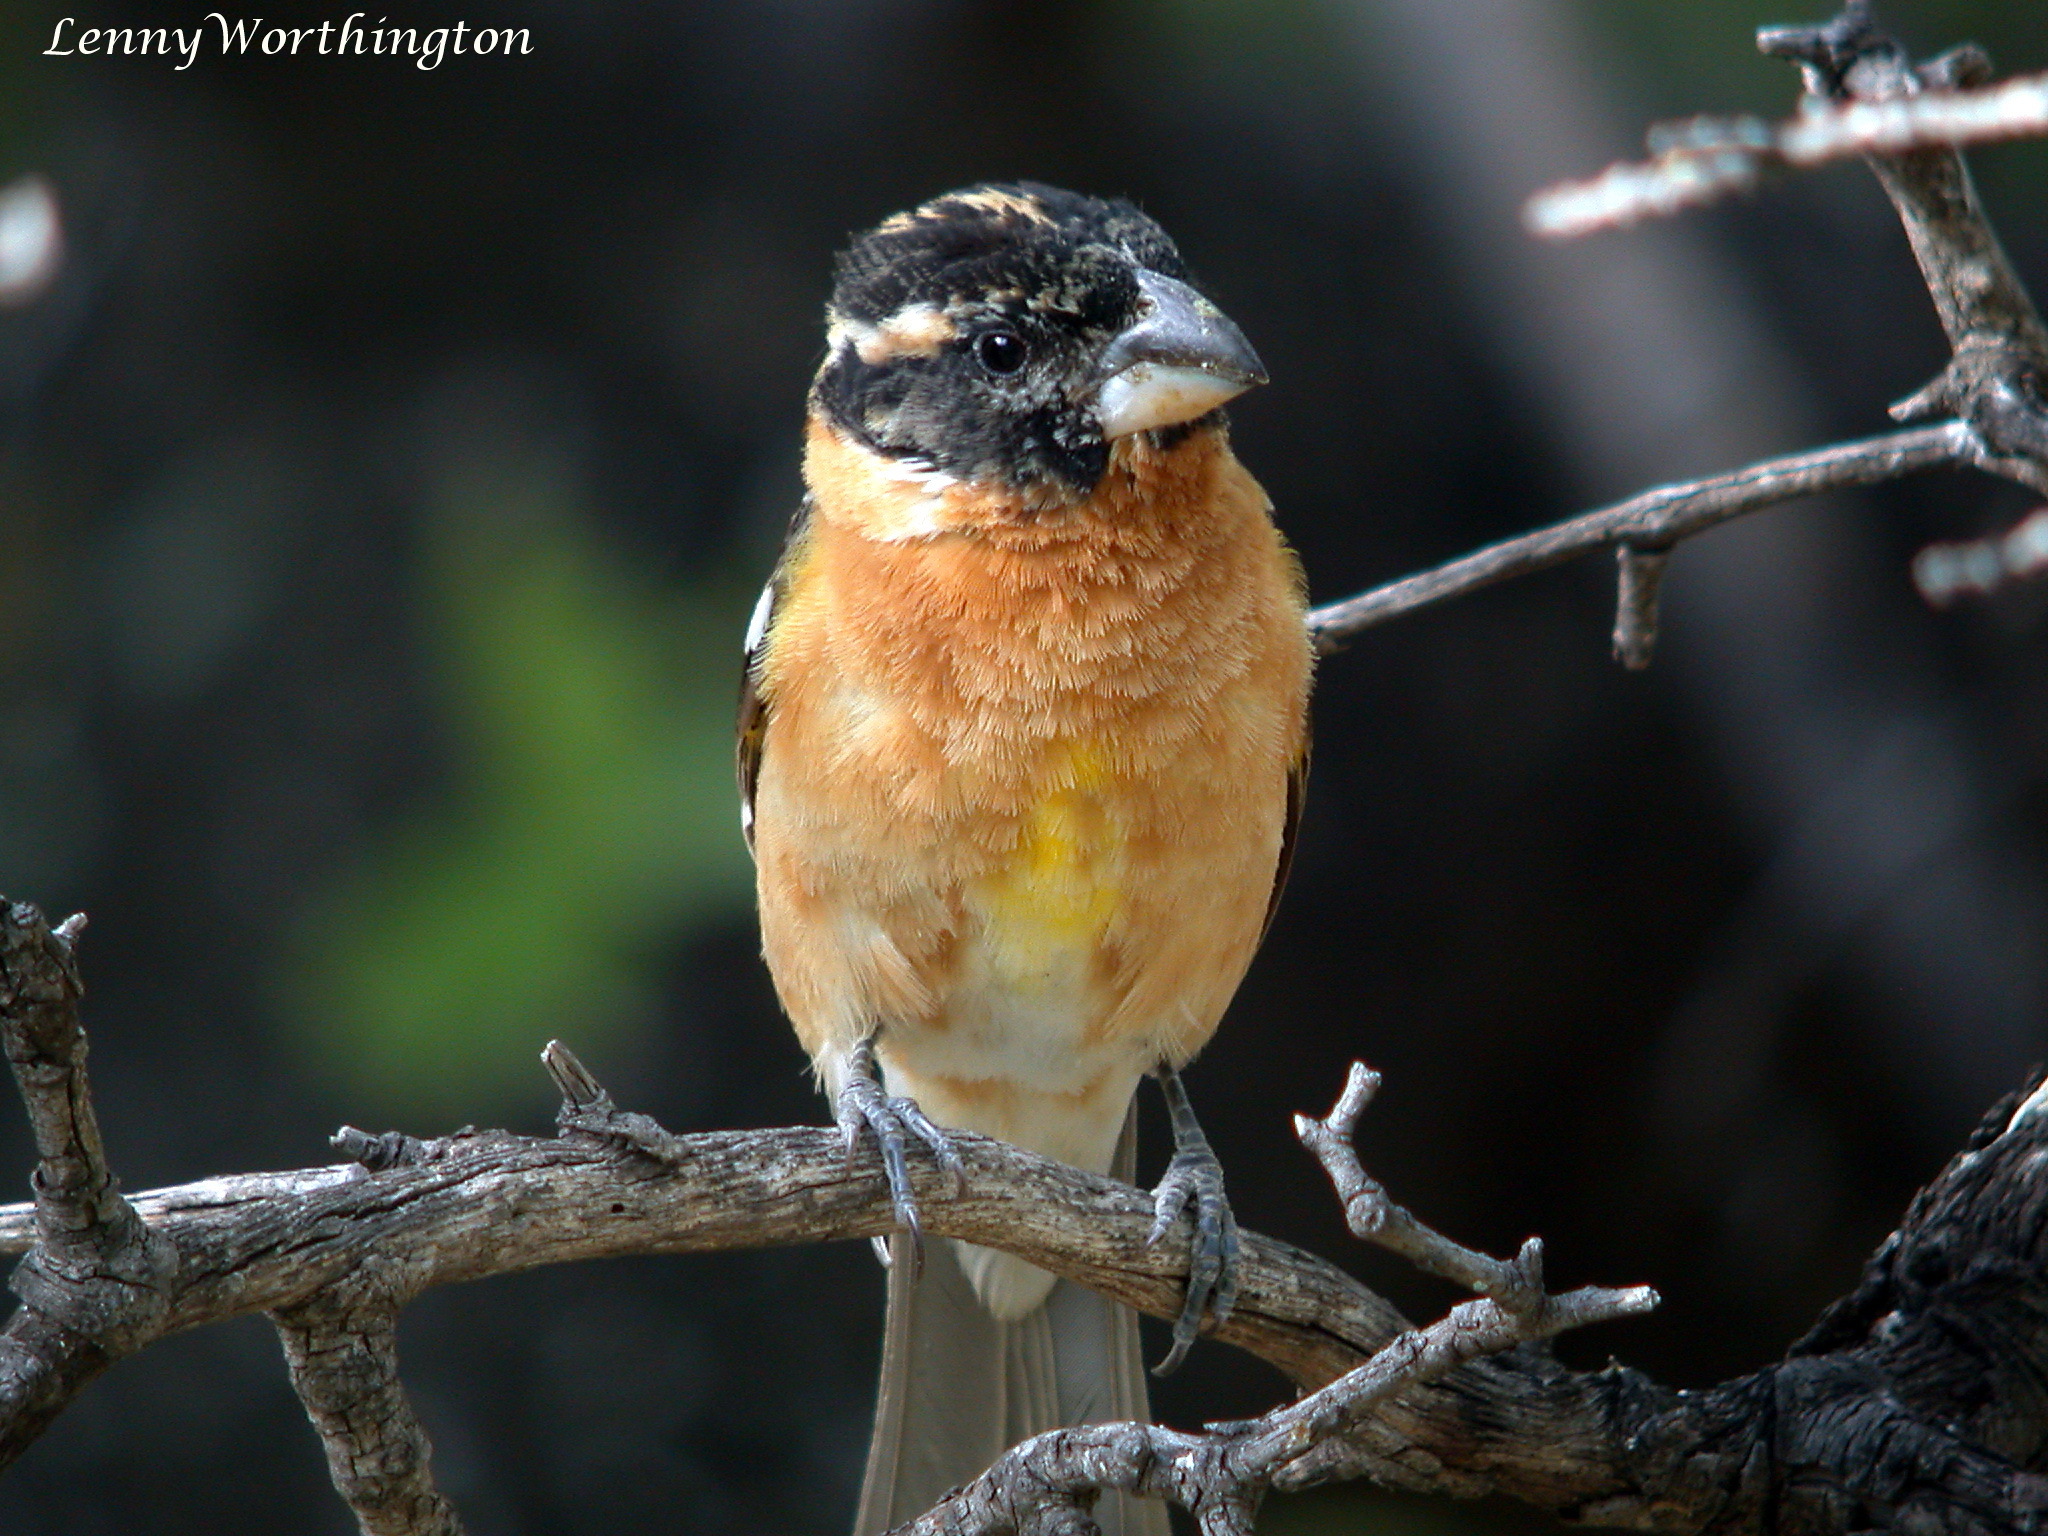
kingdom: Animalia
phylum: Chordata
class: Aves
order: Passeriformes
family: Cardinalidae
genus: Pheucticus
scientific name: Pheucticus melanocephalus
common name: Black-headed grosbeak
